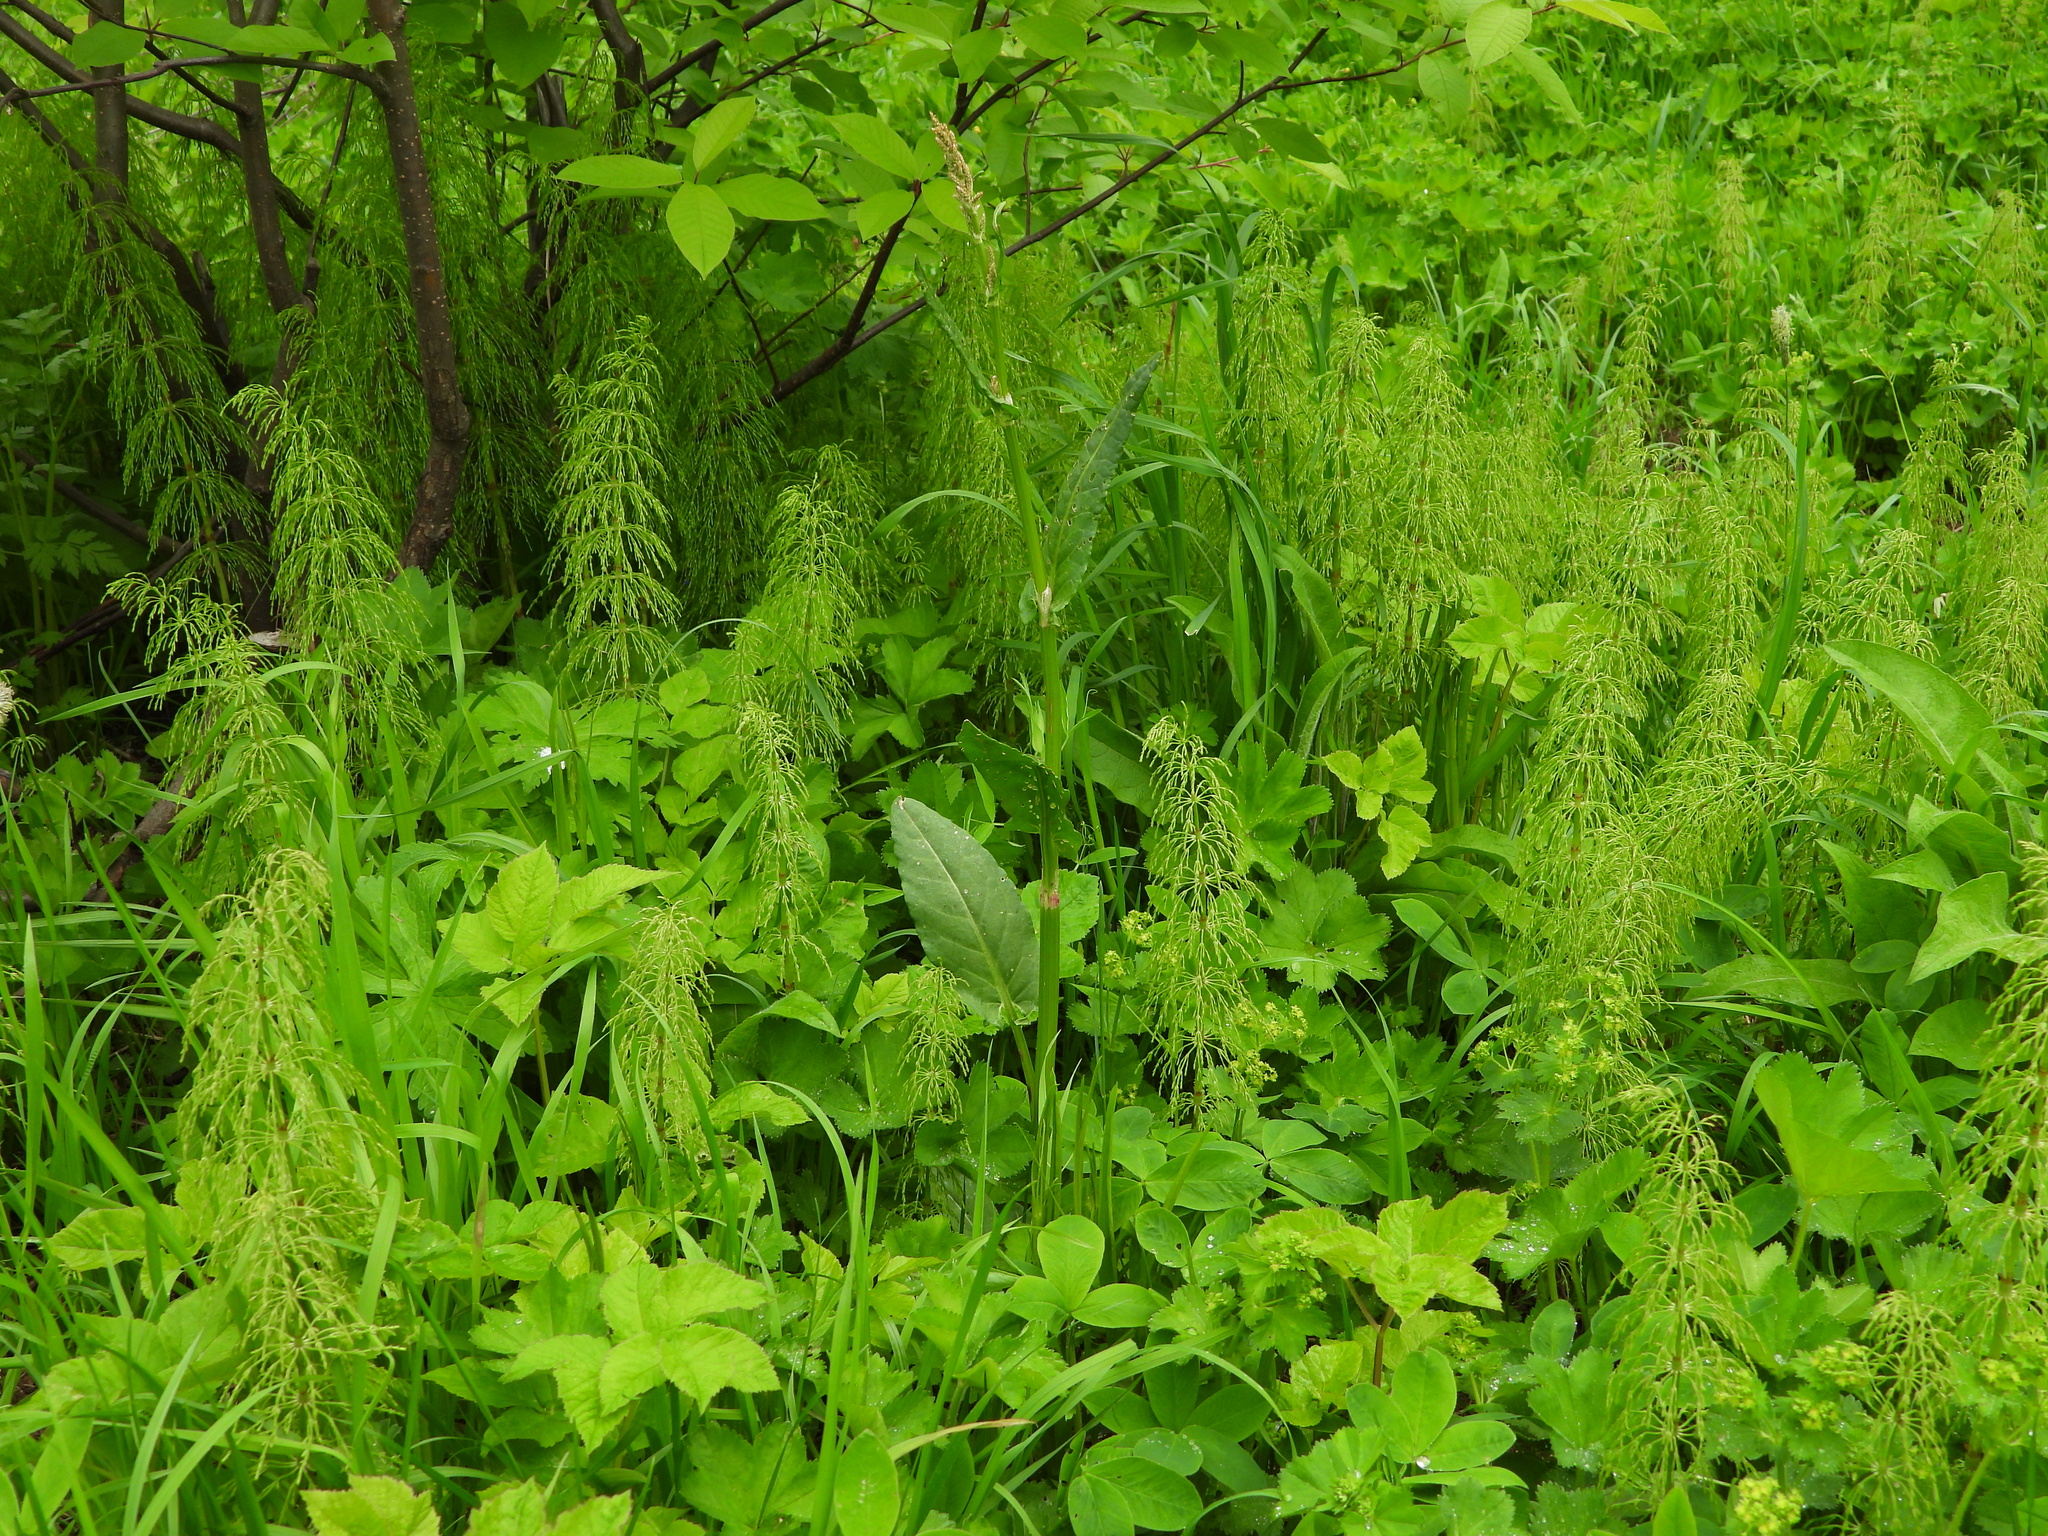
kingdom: Plantae
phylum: Tracheophyta
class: Magnoliopsida
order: Caryophyllales
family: Polygonaceae
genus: Rumex
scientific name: Rumex acetosa
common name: Garden sorrel
